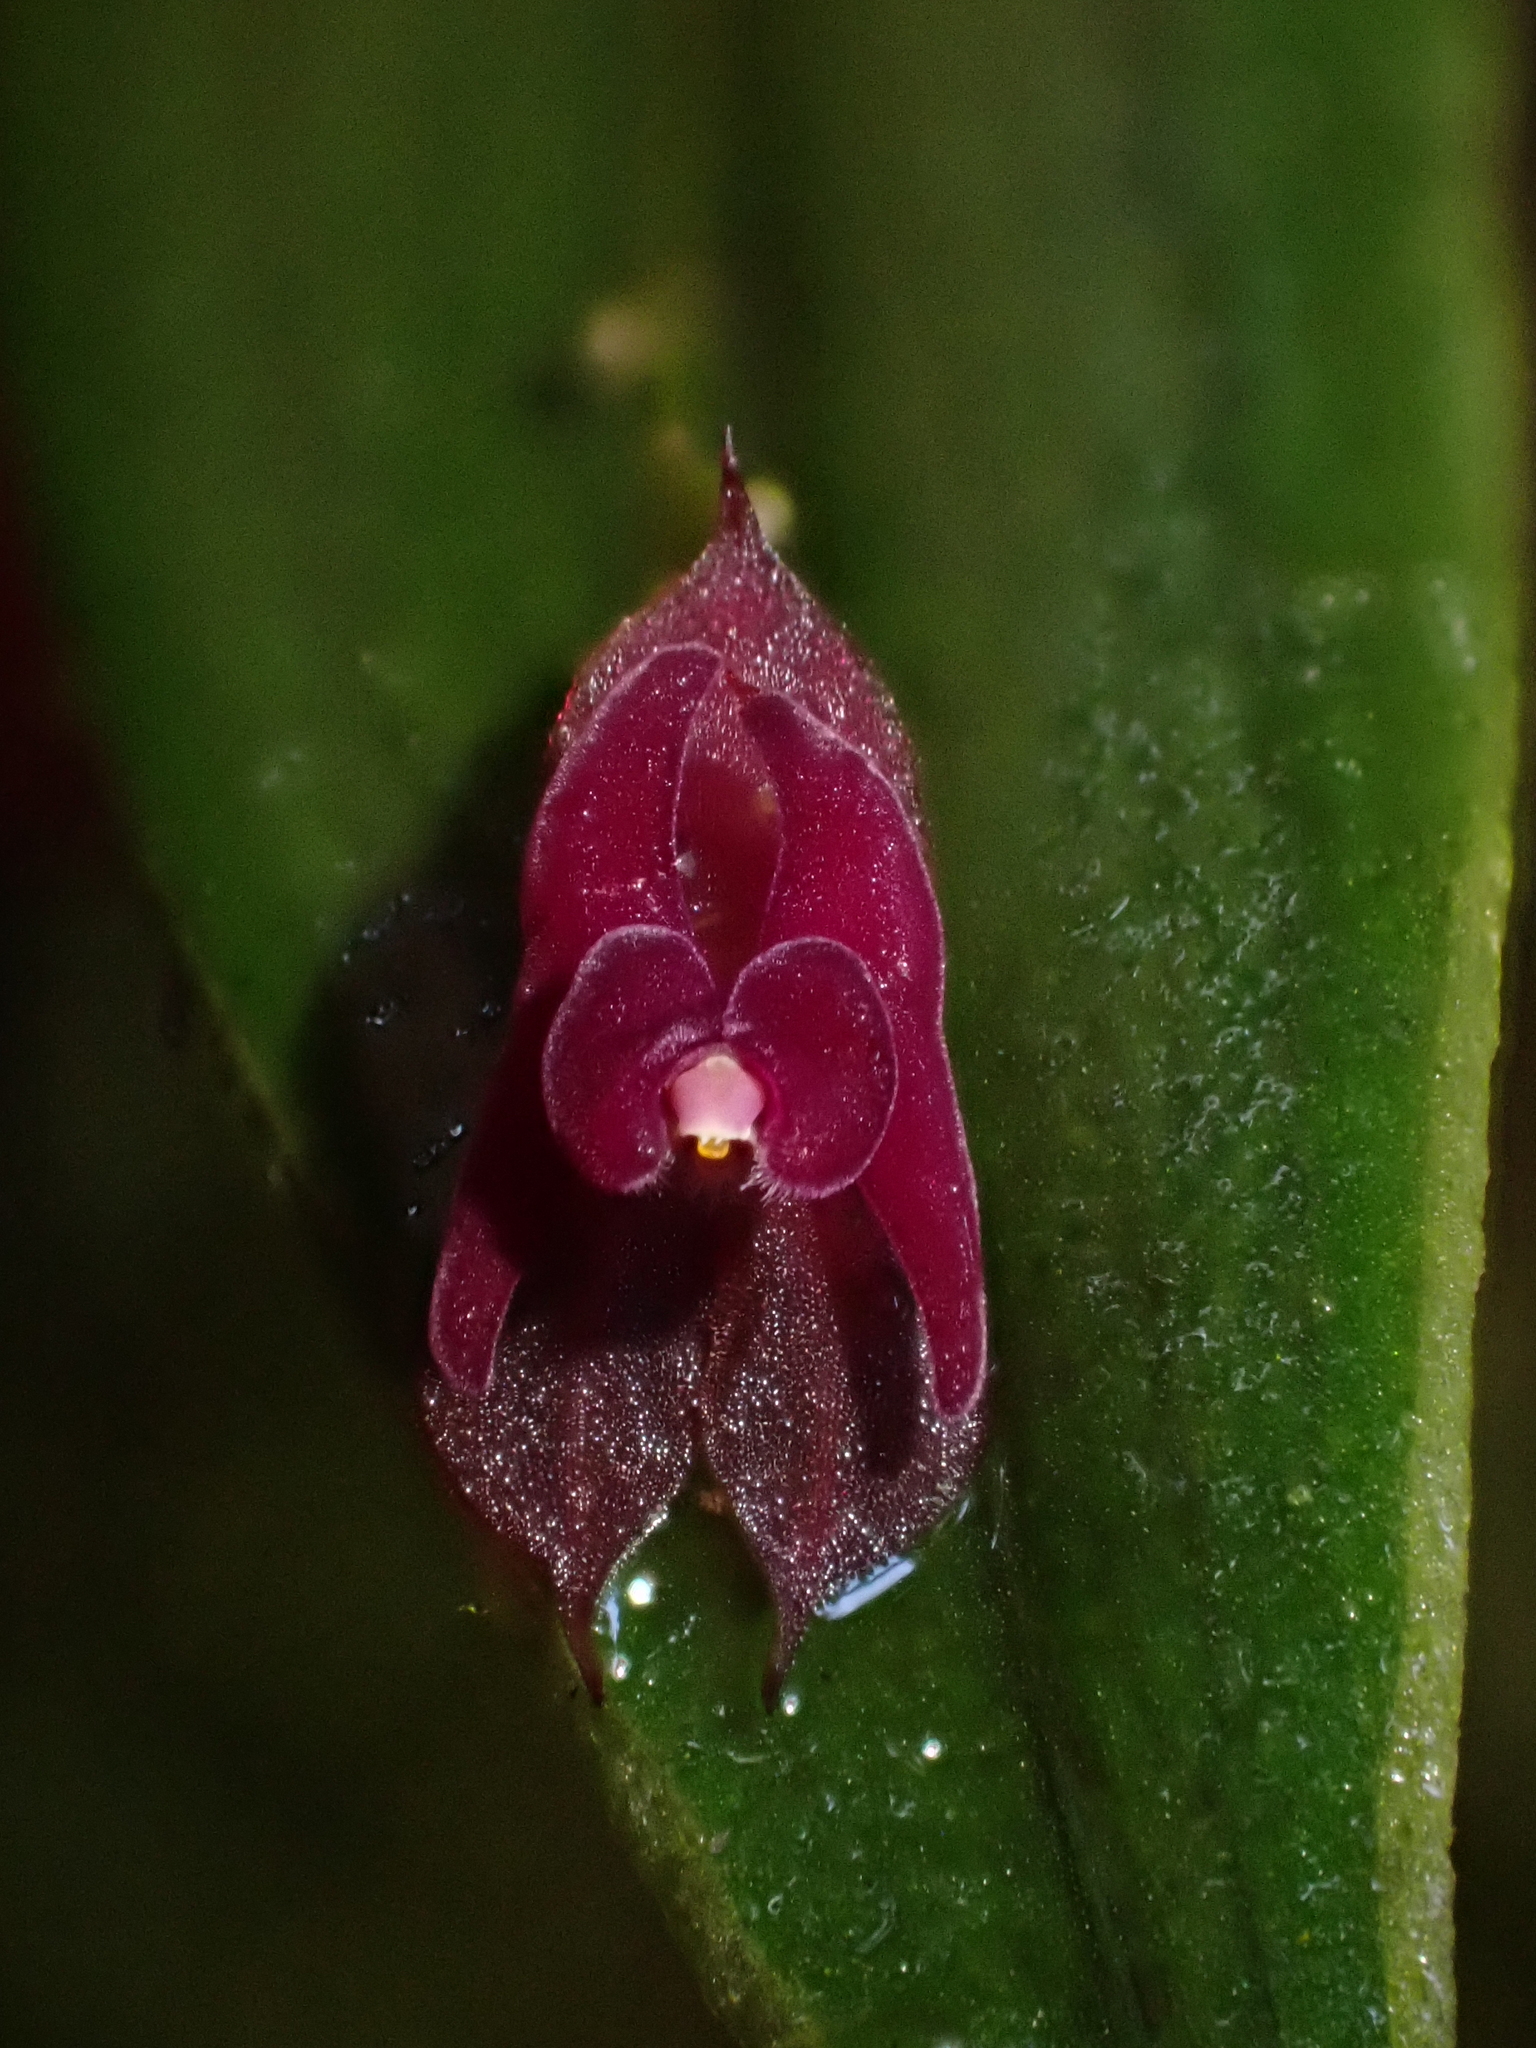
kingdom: Plantae
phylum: Tracheophyta
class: Liliopsida
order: Asparagales
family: Orchidaceae
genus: Lepanthes
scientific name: Lepanthes planadensis
